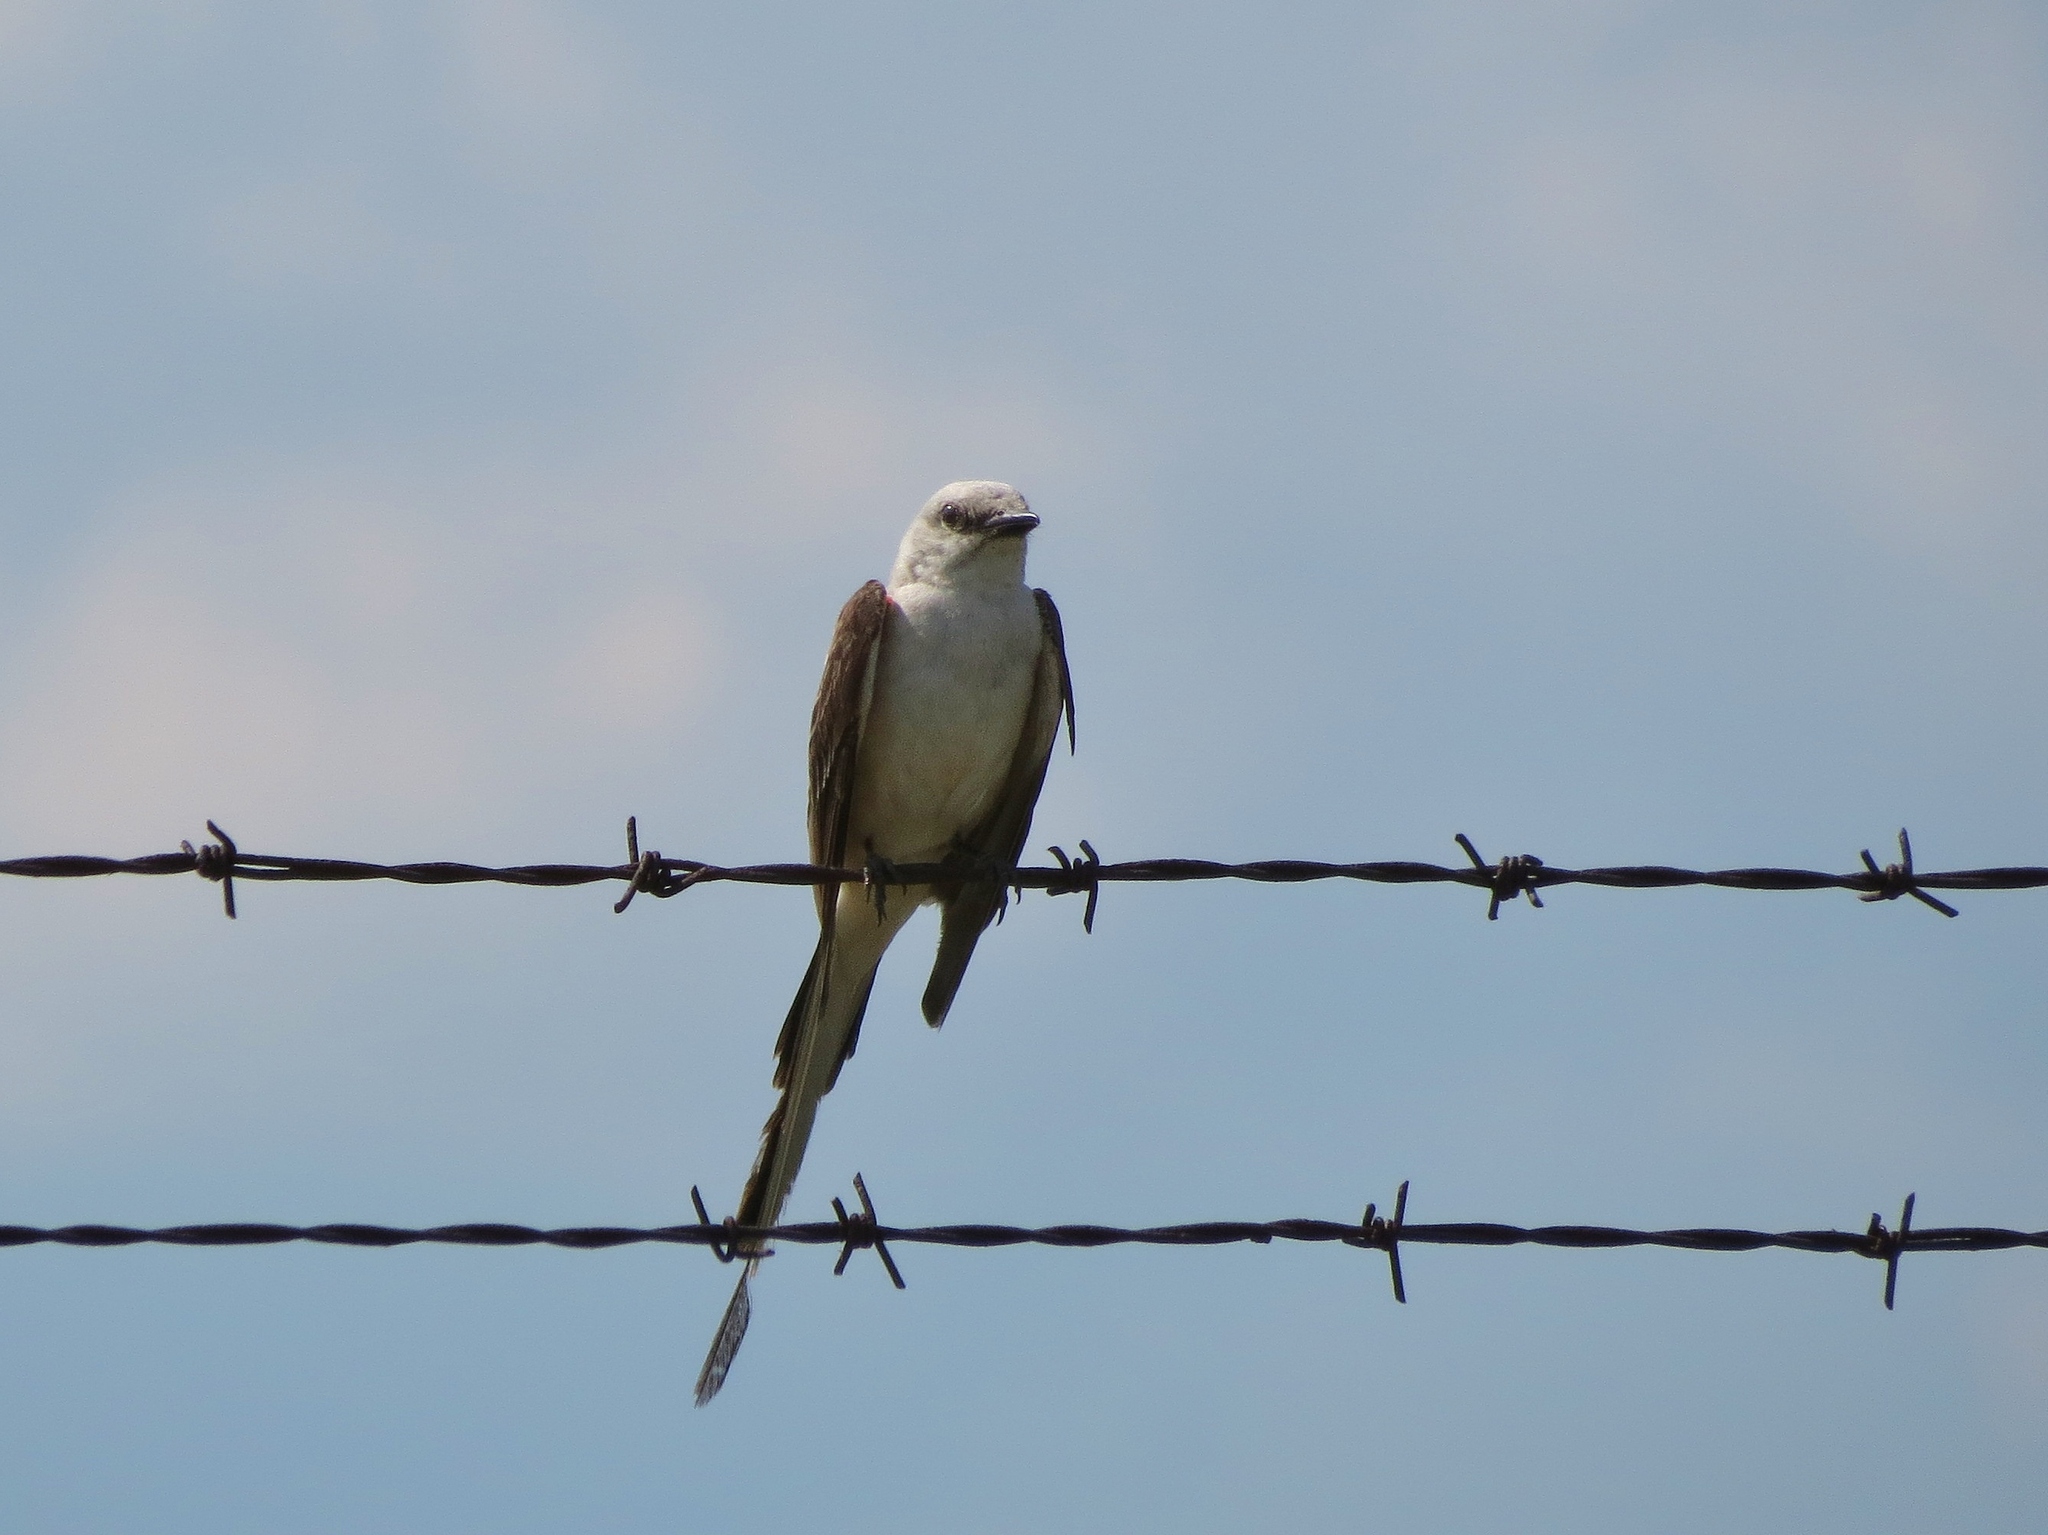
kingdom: Animalia
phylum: Chordata
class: Aves
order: Passeriformes
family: Tyrannidae
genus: Tyrannus
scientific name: Tyrannus forficatus
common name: Scissor-tailed flycatcher
